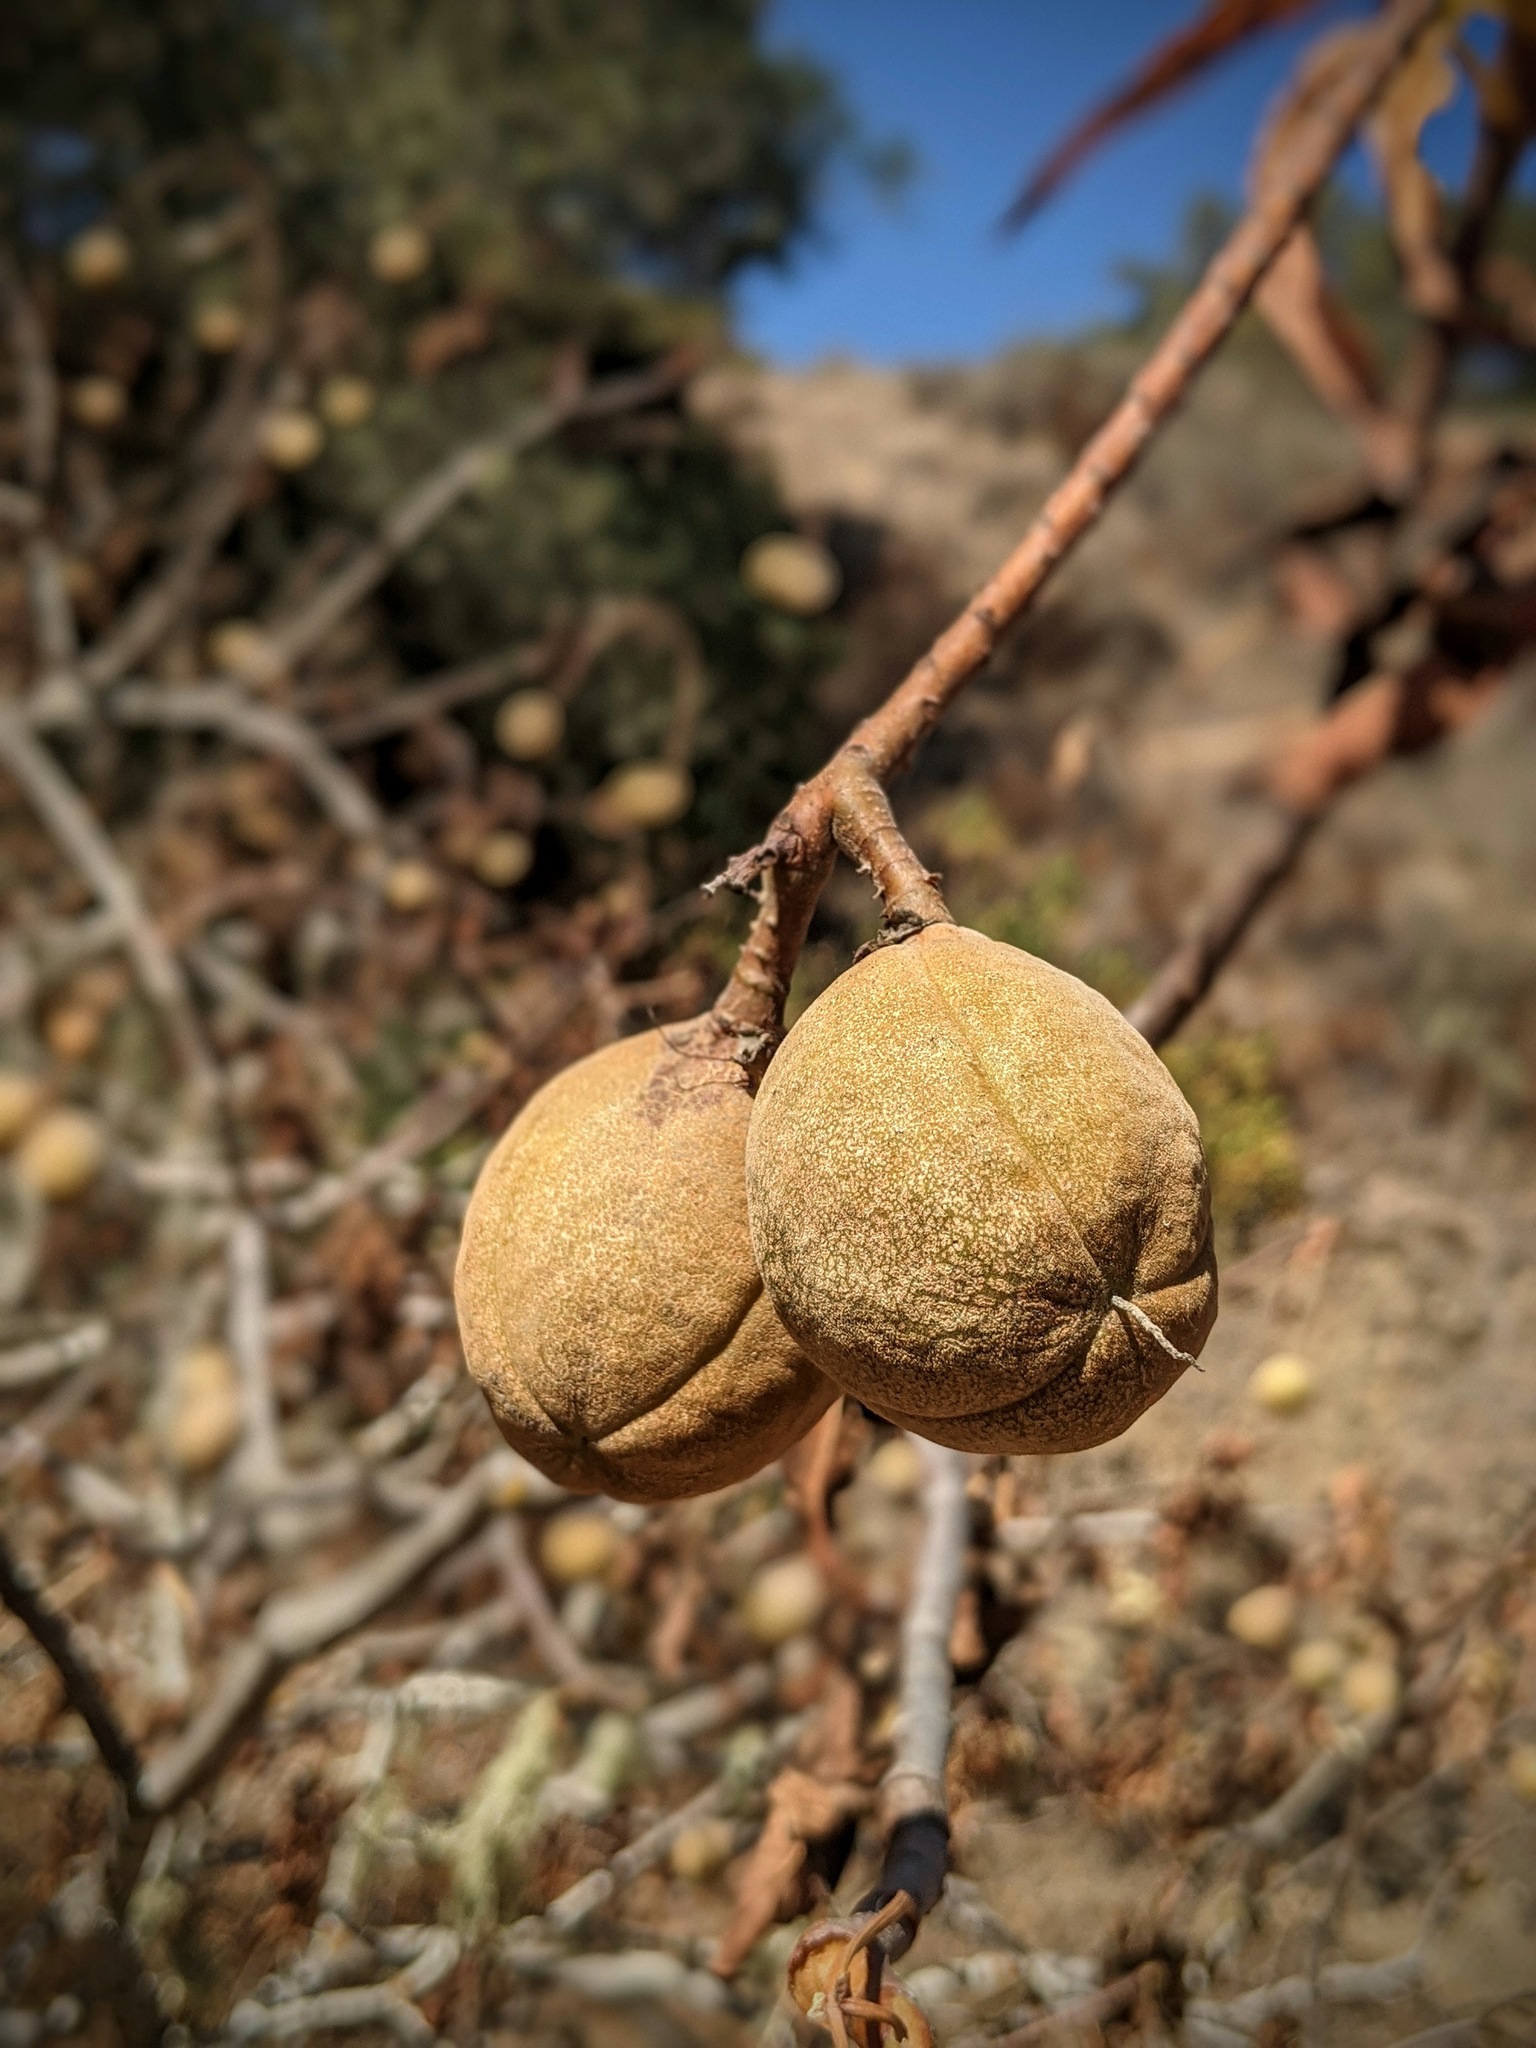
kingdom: Plantae
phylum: Tracheophyta
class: Magnoliopsida
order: Sapindales
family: Sapindaceae
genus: Aesculus
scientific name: Aesculus californica
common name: California buckeye
